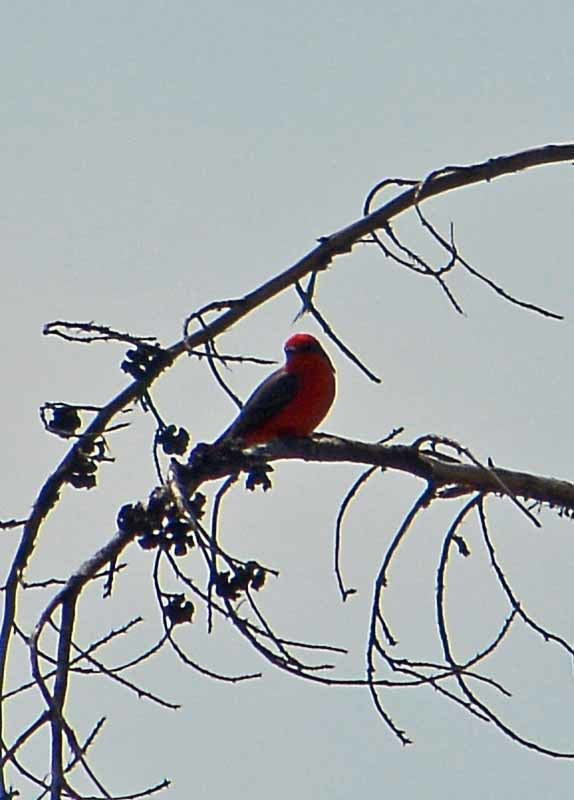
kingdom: Animalia
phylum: Chordata
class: Aves
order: Passeriformes
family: Tyrannidae
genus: Pyrocephalus
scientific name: Pyrocephalus rubinus
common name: Vermilion flycatcher
